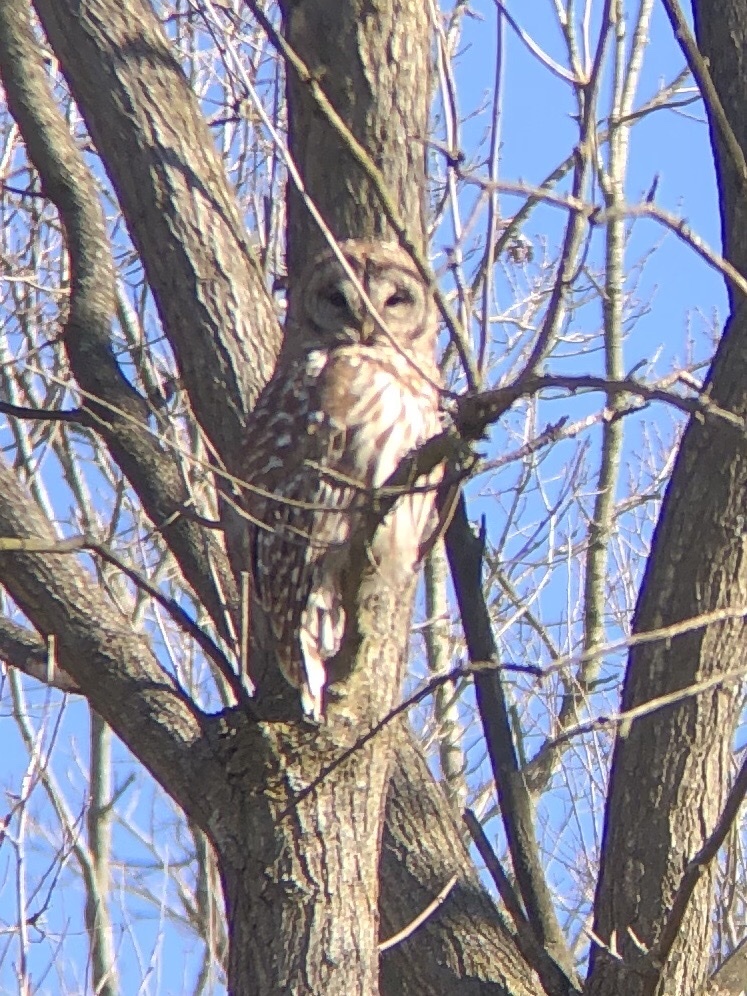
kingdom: Animalia
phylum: Chordata
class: Aves
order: Strigiformes
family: Strigidae
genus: Strix
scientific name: Strix varia
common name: Barred owl
